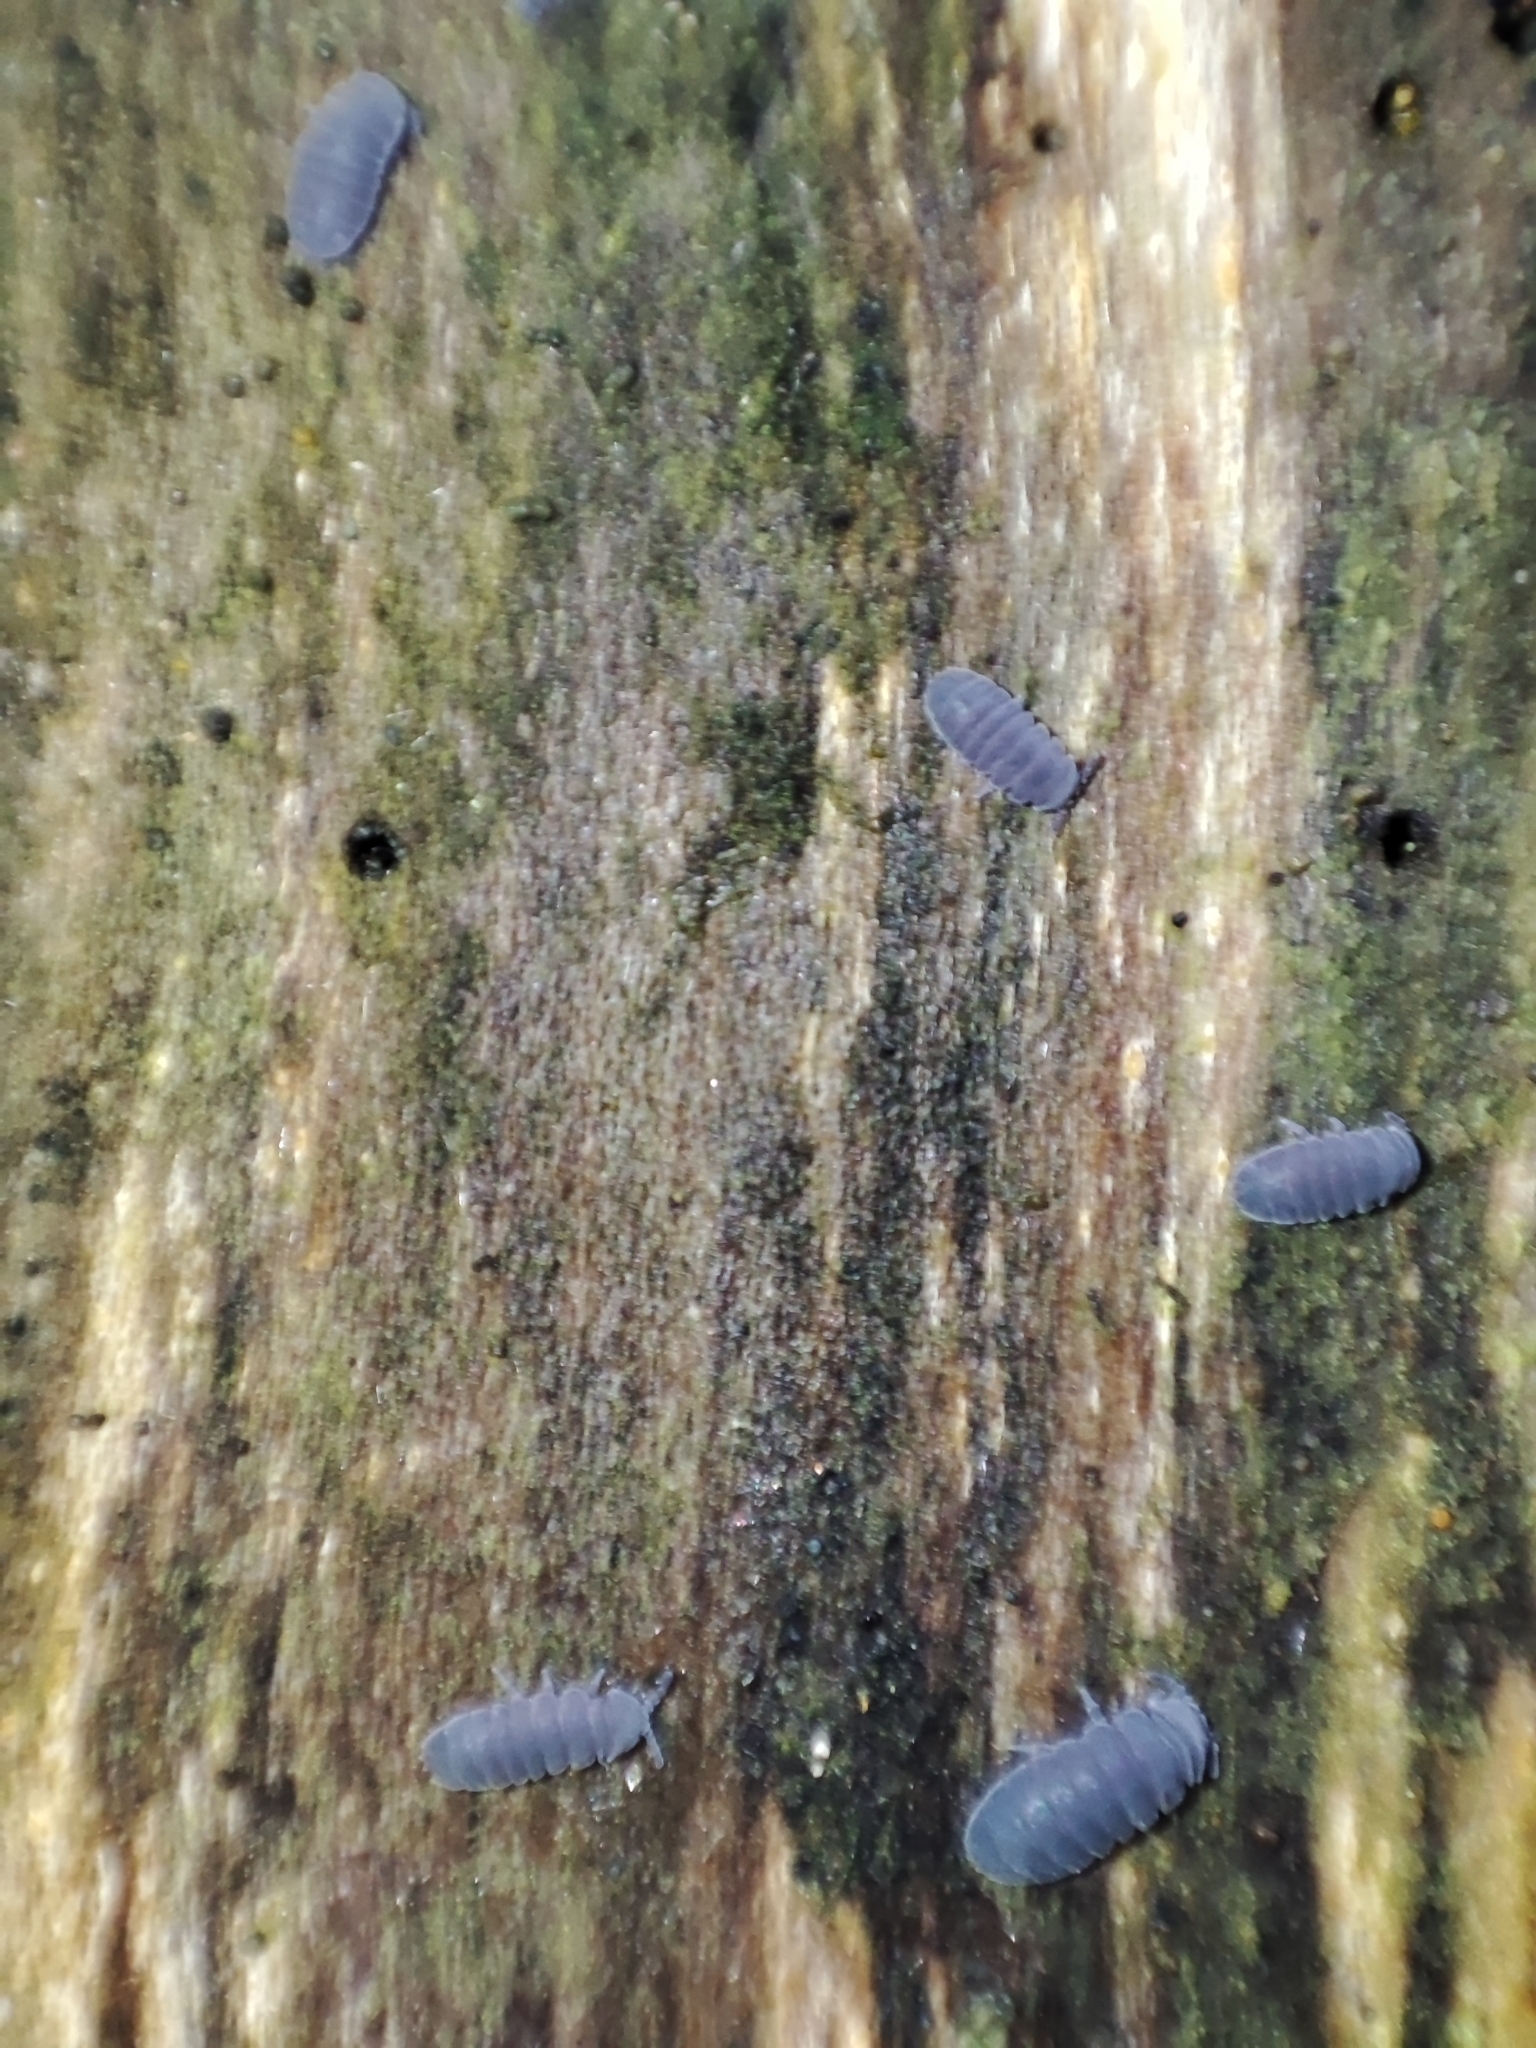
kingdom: Animalia
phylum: Arthropoda
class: Collembola
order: Poduromorpha
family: Onychiuridae
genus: Tetrodontophora
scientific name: Tetrodontophora bielanensis
